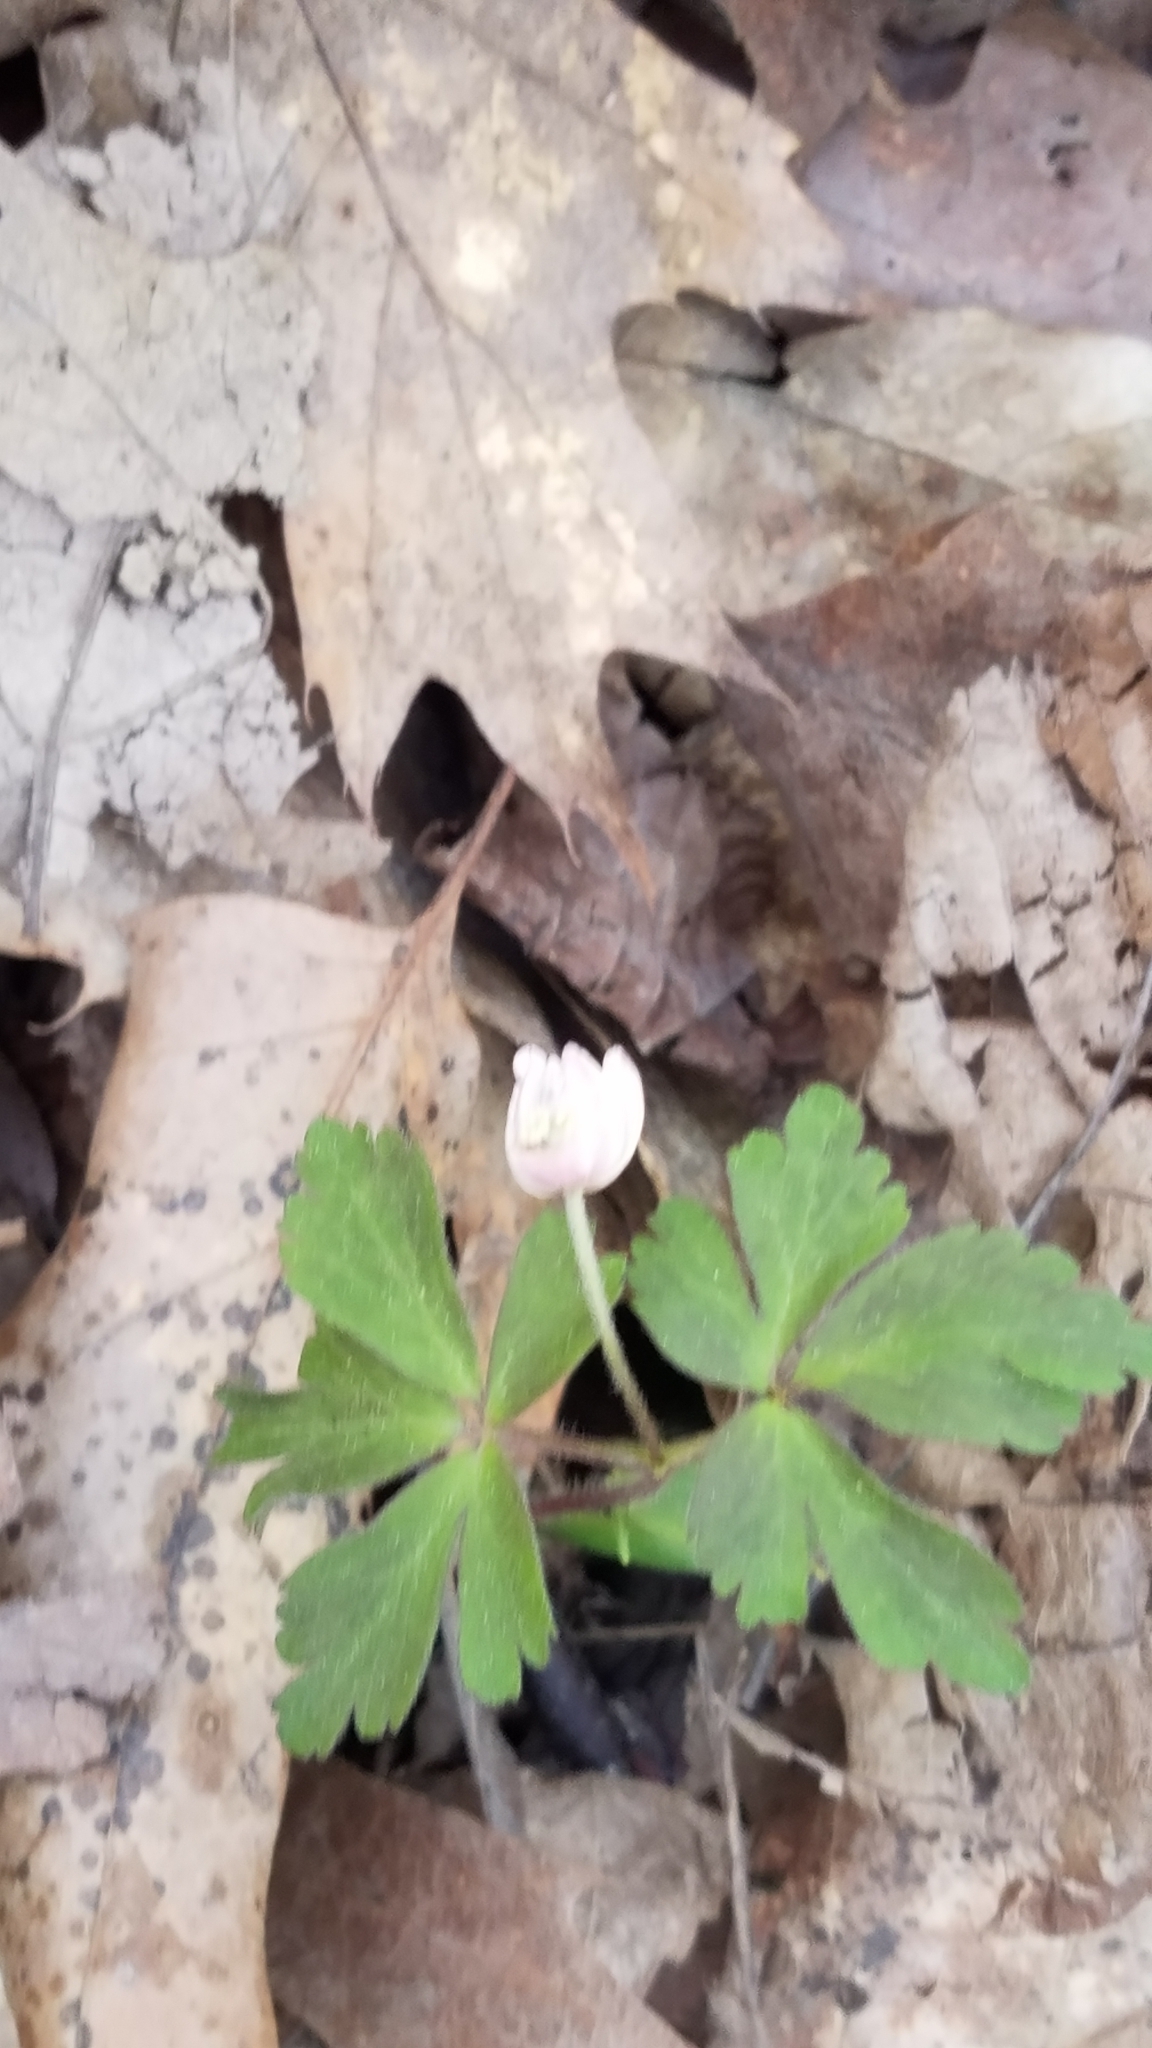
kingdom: Plantae
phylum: Tracheophyta
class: Magnoliopsida
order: Ranunculales
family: Ranunculaceae
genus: Anemone
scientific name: Anemone quinquefolia
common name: Wood anemone
